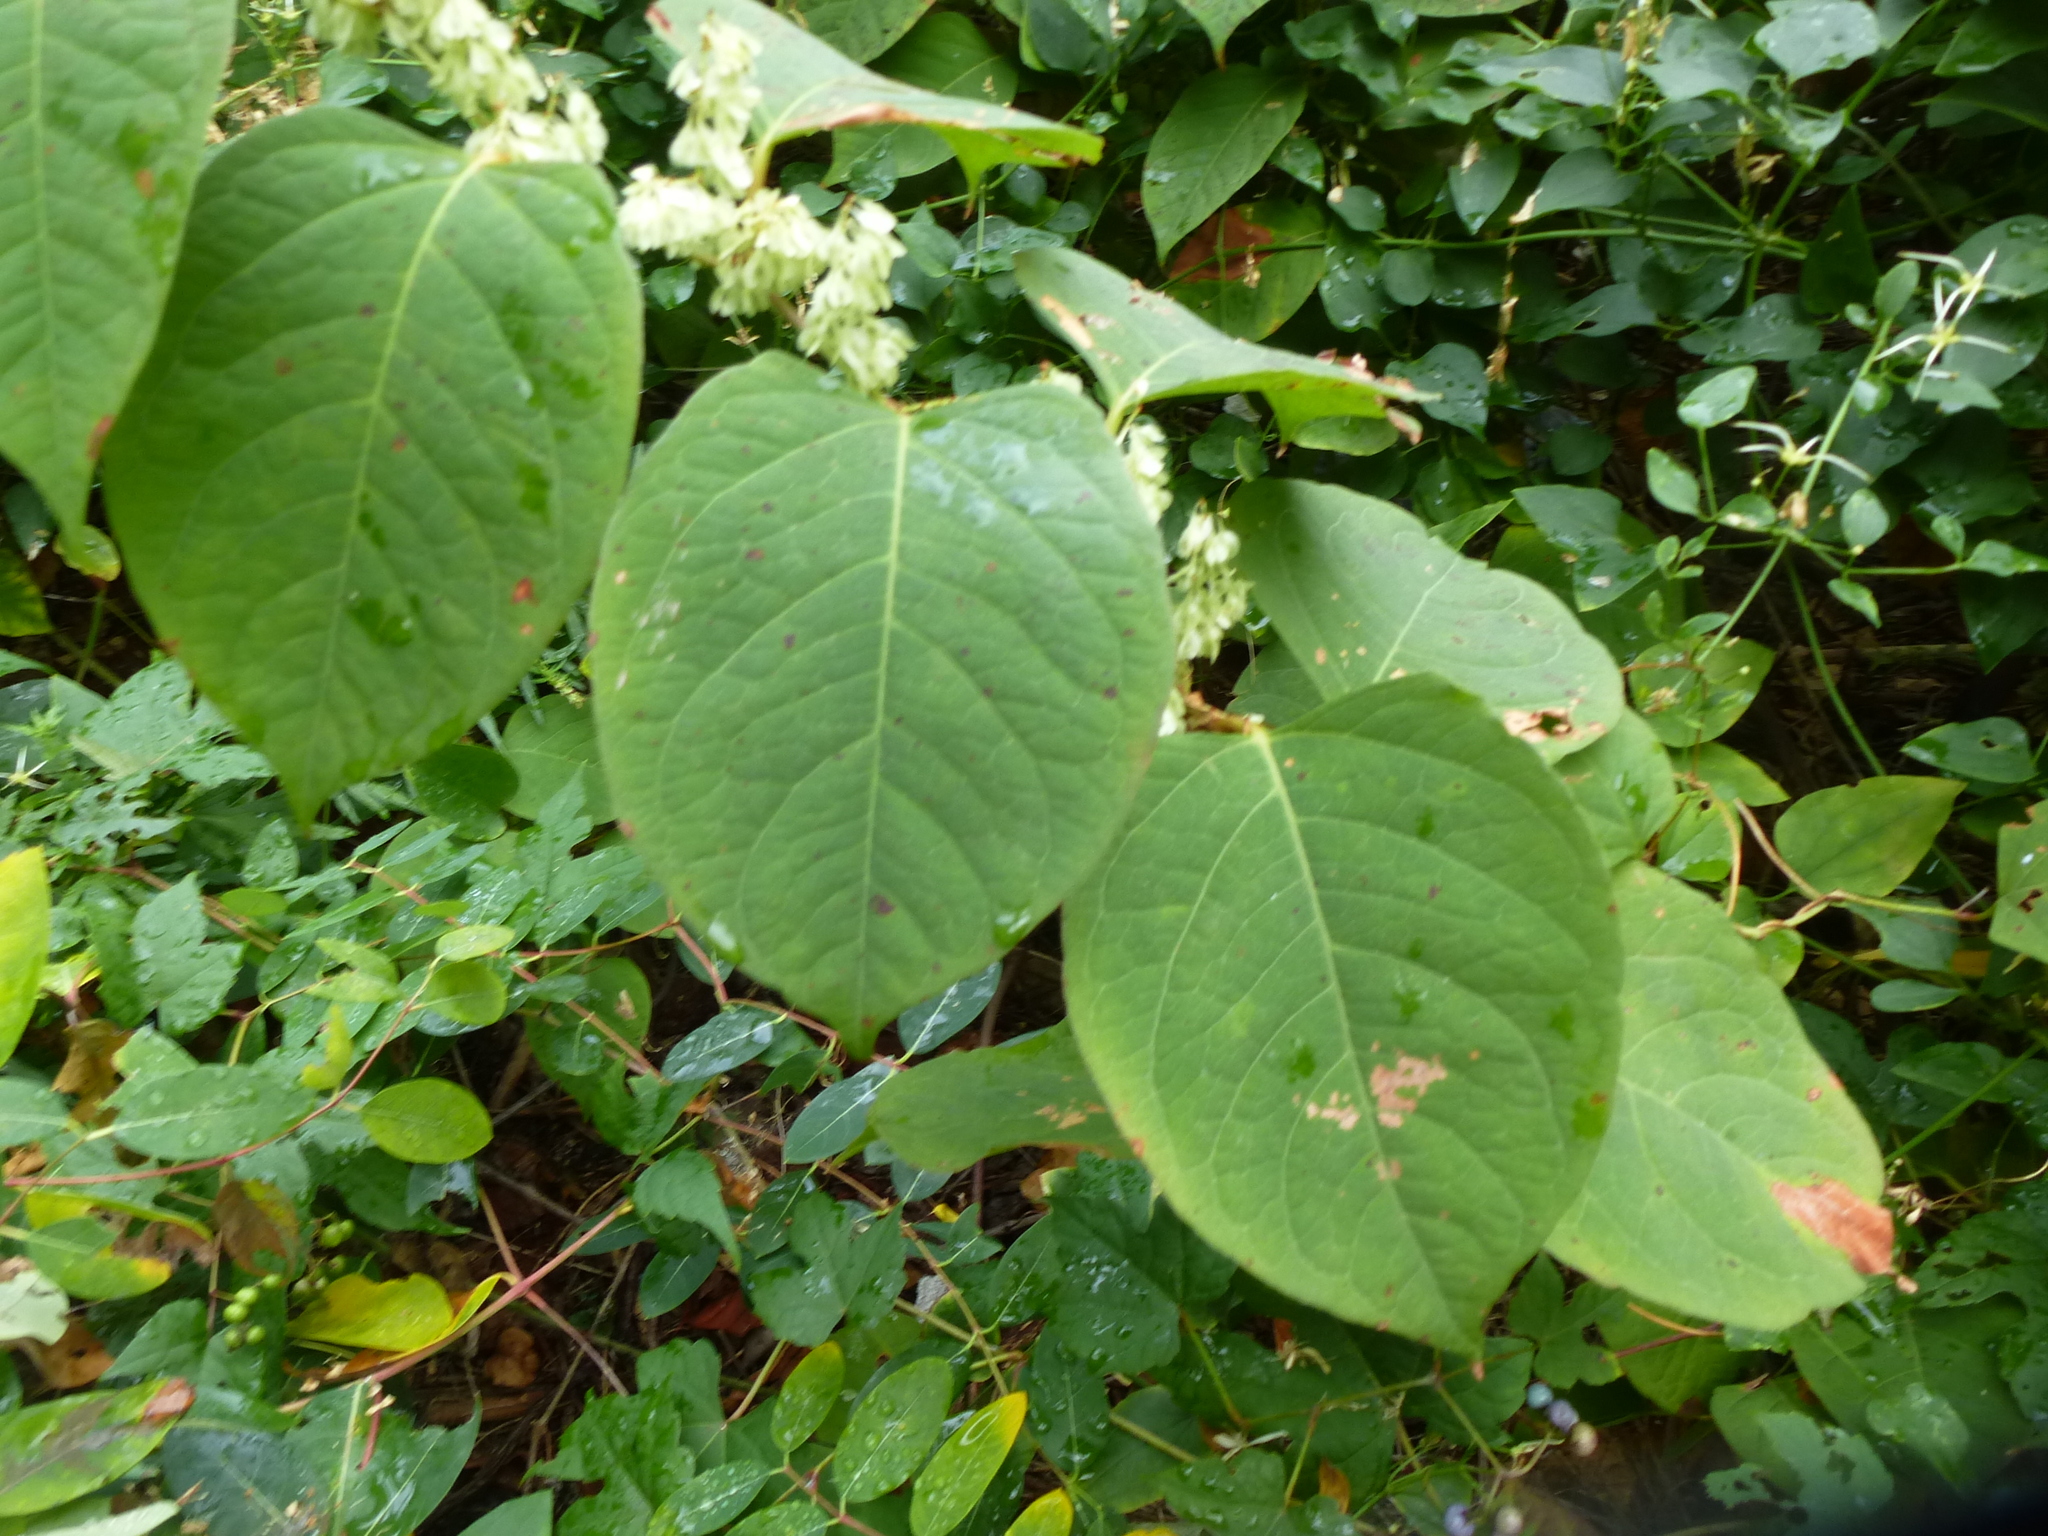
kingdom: Plantae
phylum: Tracheophyta
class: Magnoliopsida
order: Caryophyllales
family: Polygonaceae
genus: Reynoutria
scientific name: Reynoutria japonica
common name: Japanese knotweed
